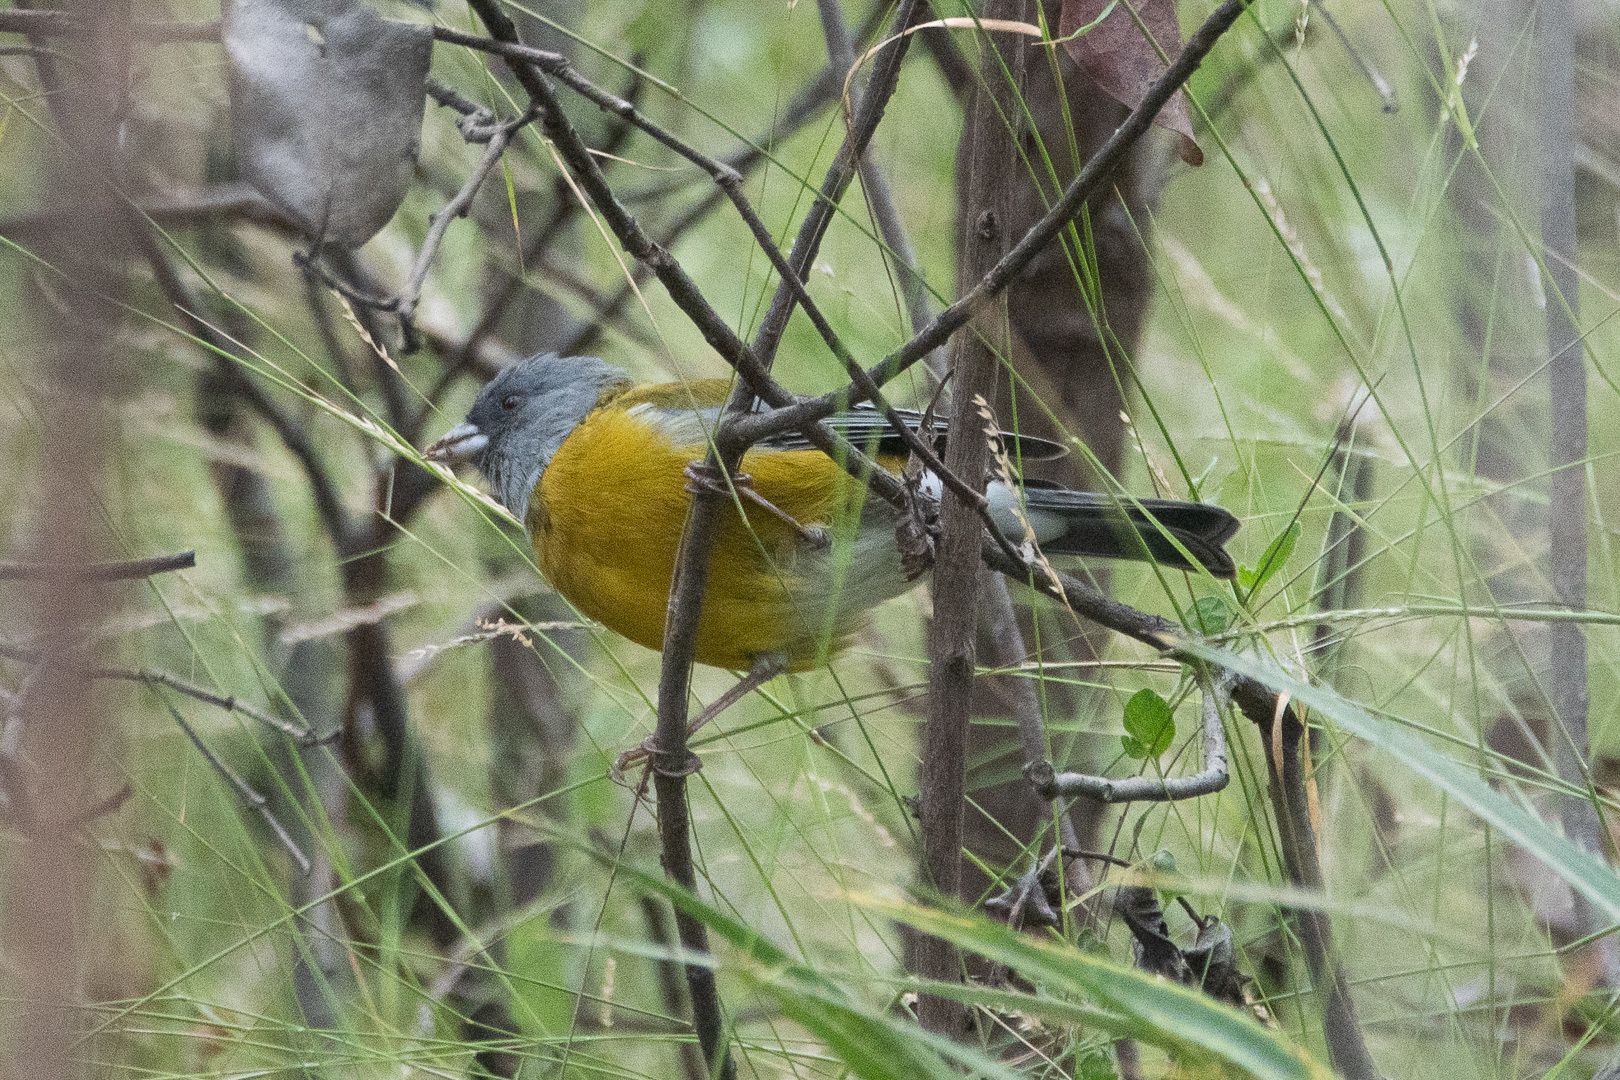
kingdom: Animalia
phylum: Chordata
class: Aves
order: Passeriformes
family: Thraupidae
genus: Phrygilus
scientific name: Phrygilus gayi
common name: Grey-hooded sierra finch
